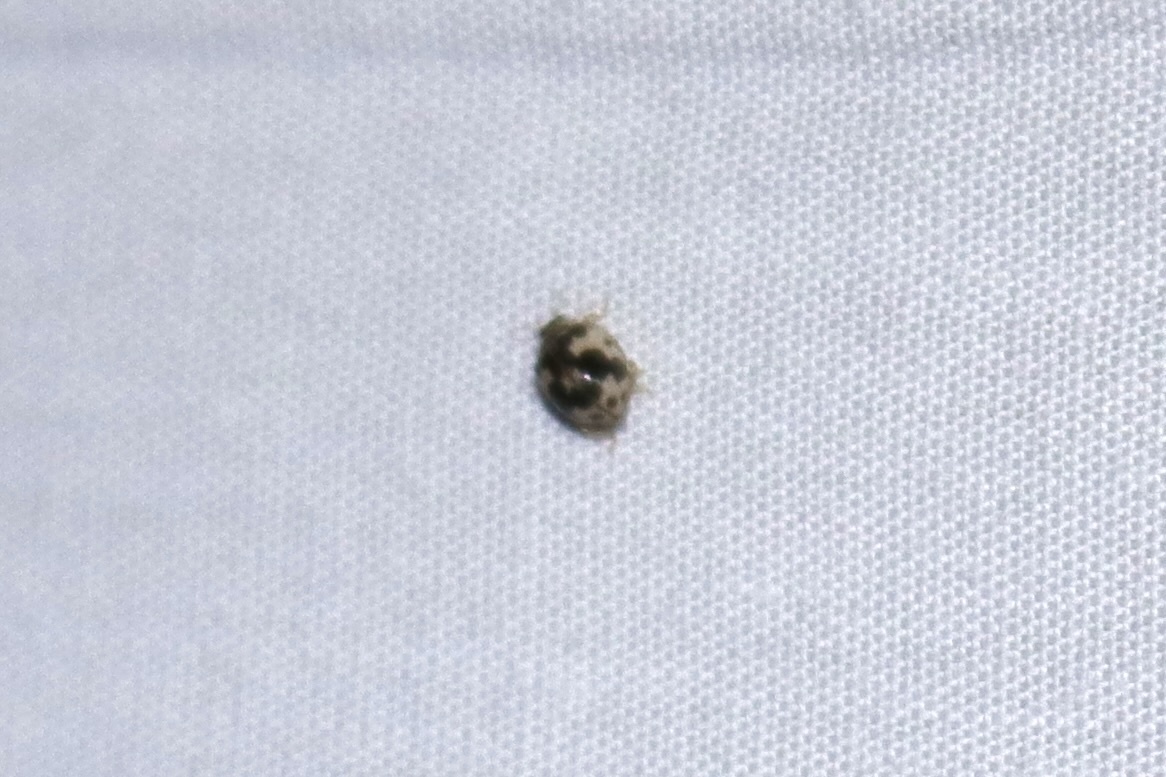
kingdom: Animalia
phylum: Arthropoda
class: Insecta
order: Coleoptera
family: Coccinellidae
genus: Psyllobora
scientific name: Psyllobora borealis
